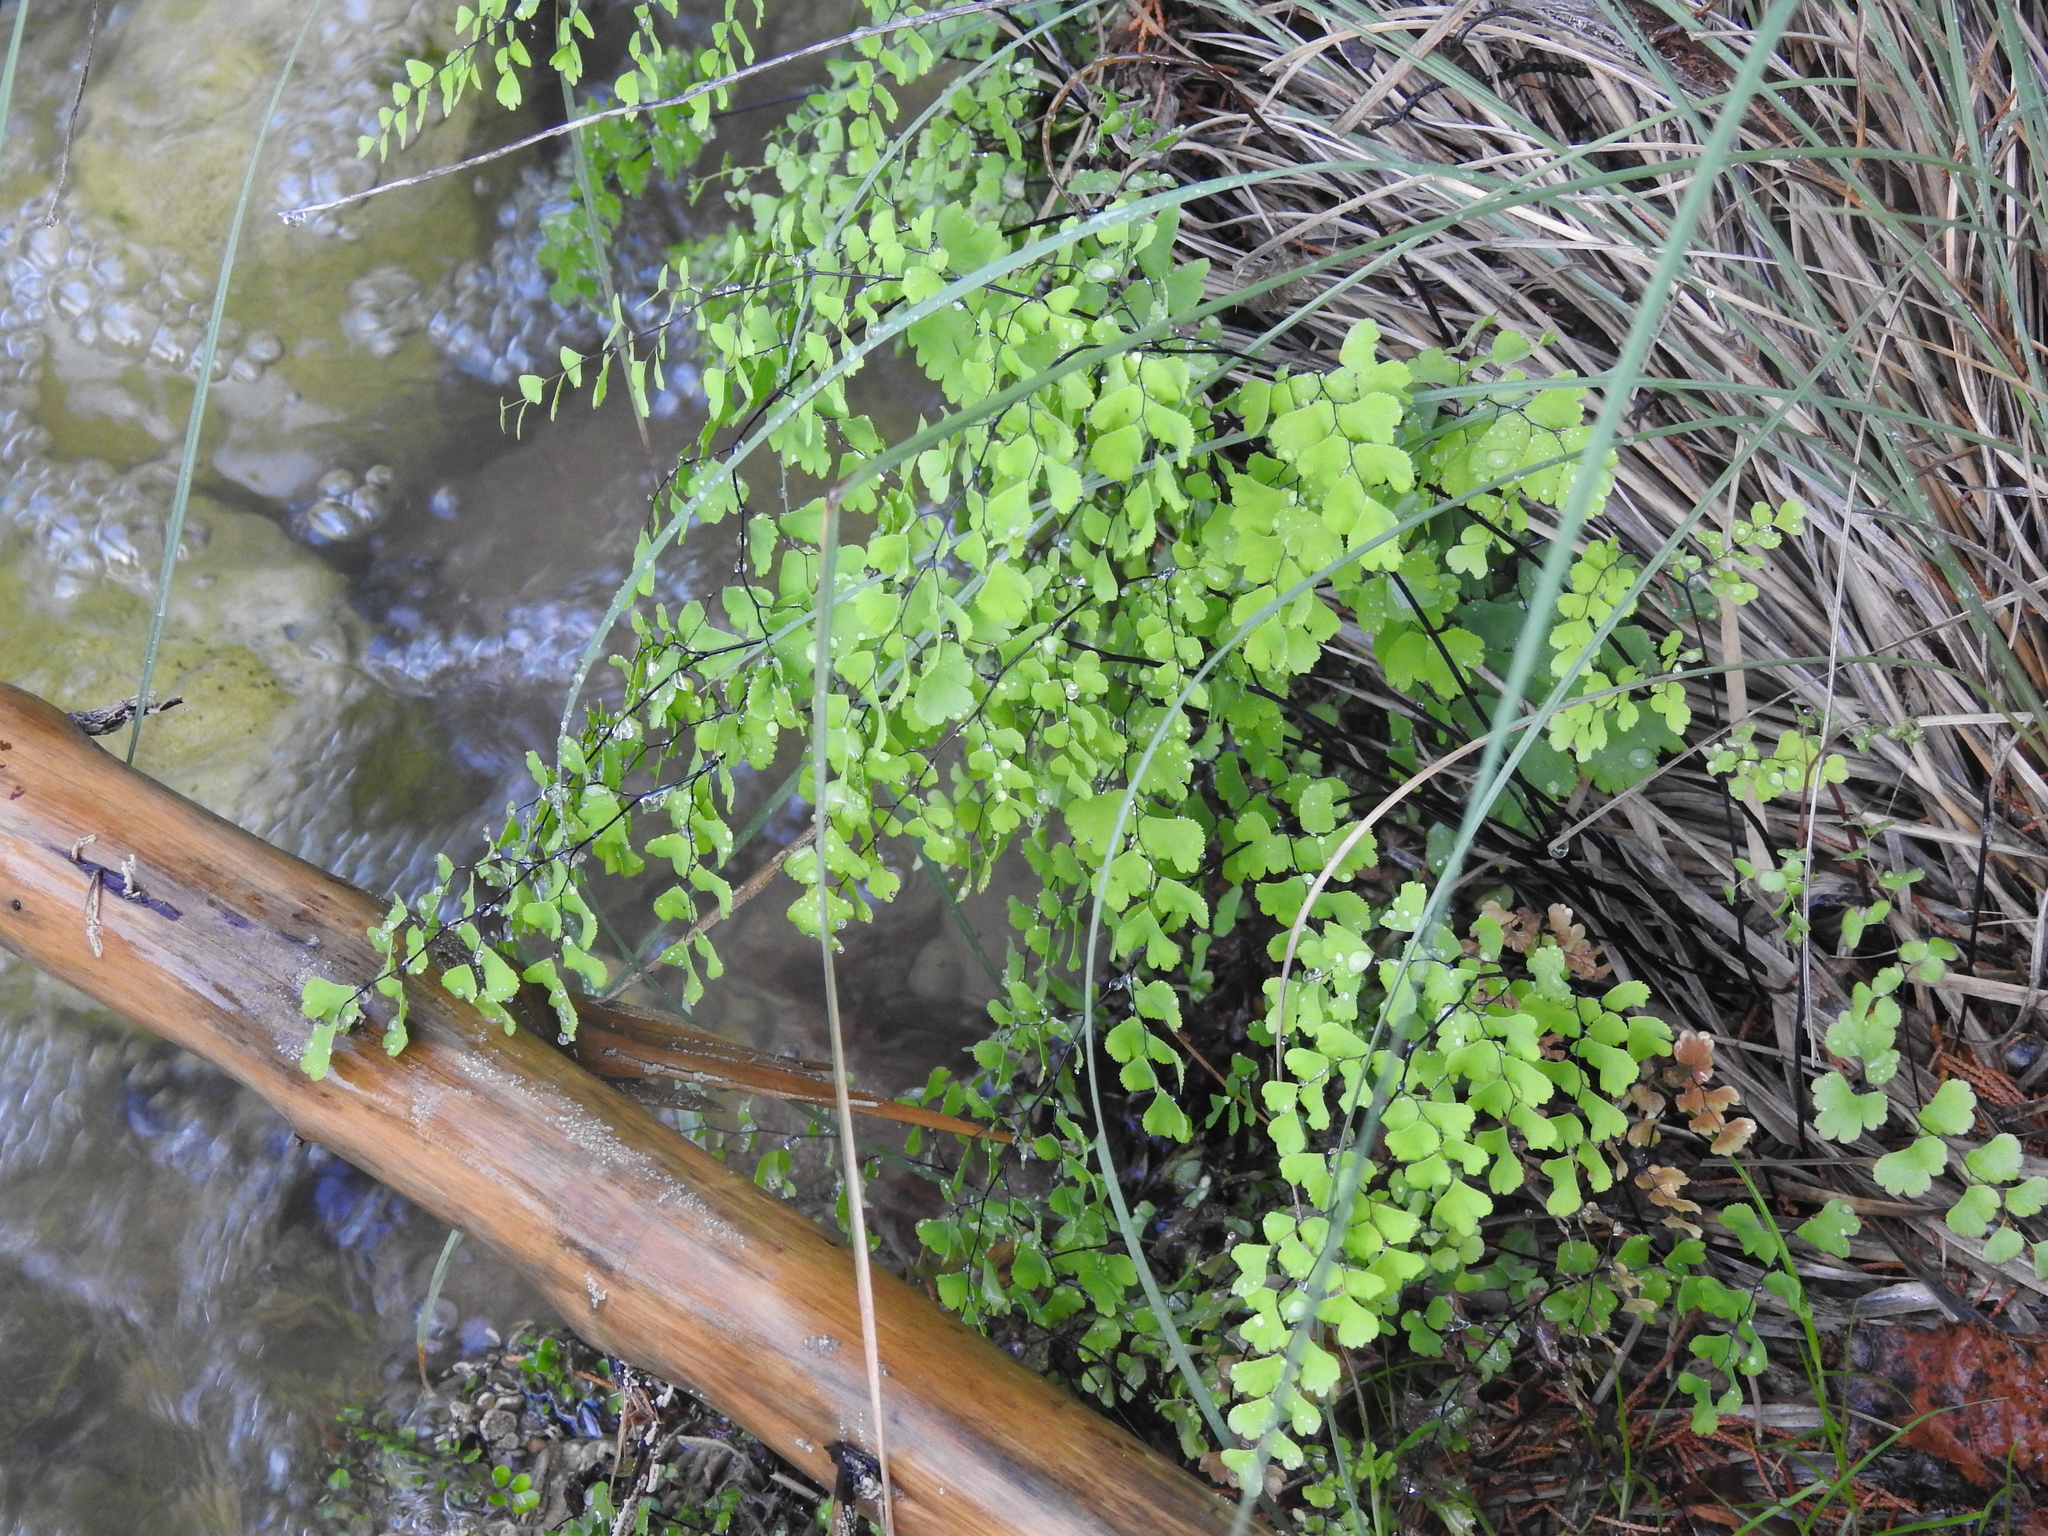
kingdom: Plantae
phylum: Tracheophyta
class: Polypodiopsida
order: Polypodiales
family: Pteridaceae
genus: Adiantum
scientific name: Adiantum capillus-veneris
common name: Maidenhair fern
